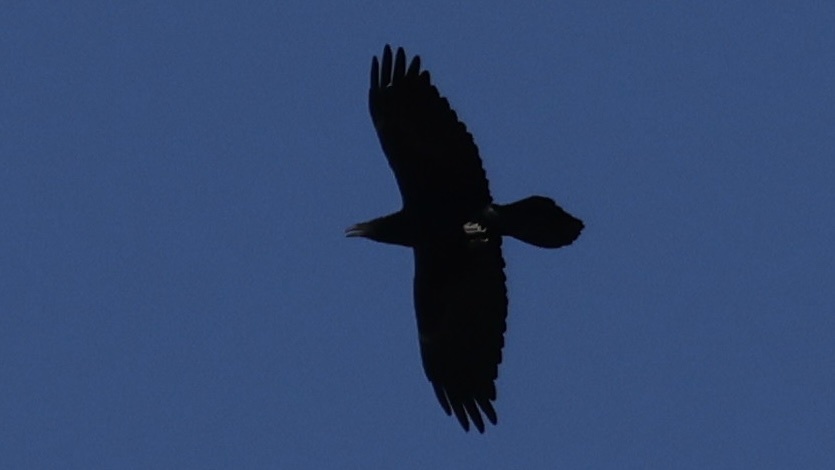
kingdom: Animalia
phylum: Chordata
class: Aves
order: Passeriformes
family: Corvidae
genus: Corvus
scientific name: Corvus corax
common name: Common raven
